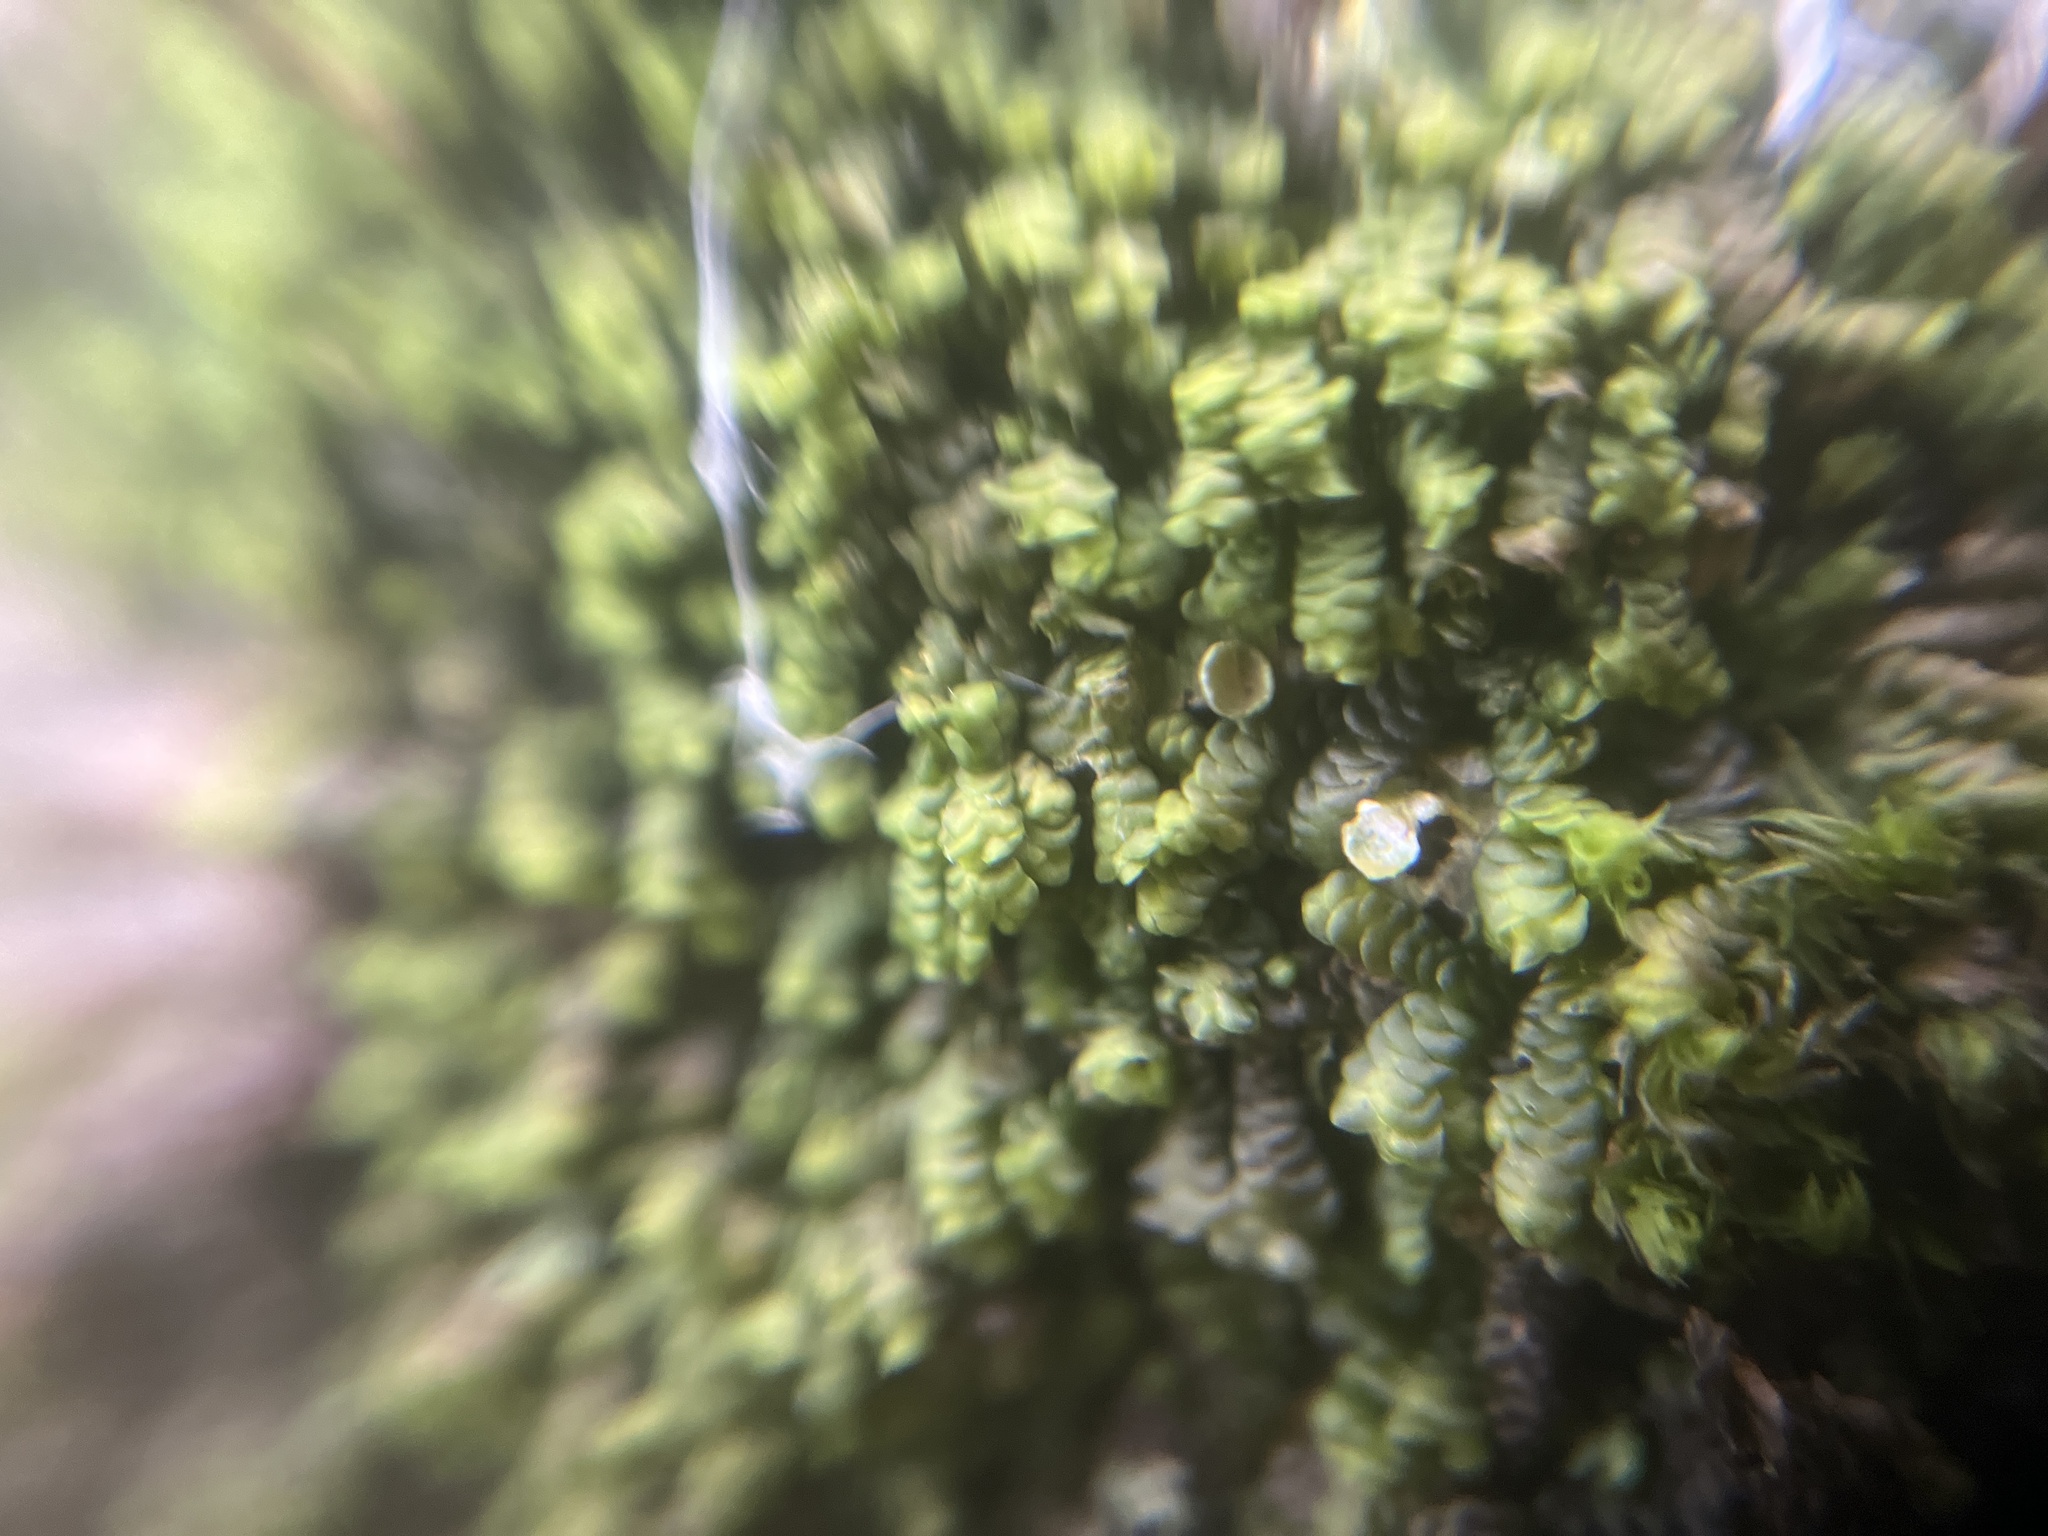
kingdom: Plantae
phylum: Marchantiophyta
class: Jungermanniopsida
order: Porellales
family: Frullaniaceae
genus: Frullania
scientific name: Frullania dilatata
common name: Dilated scalewort
